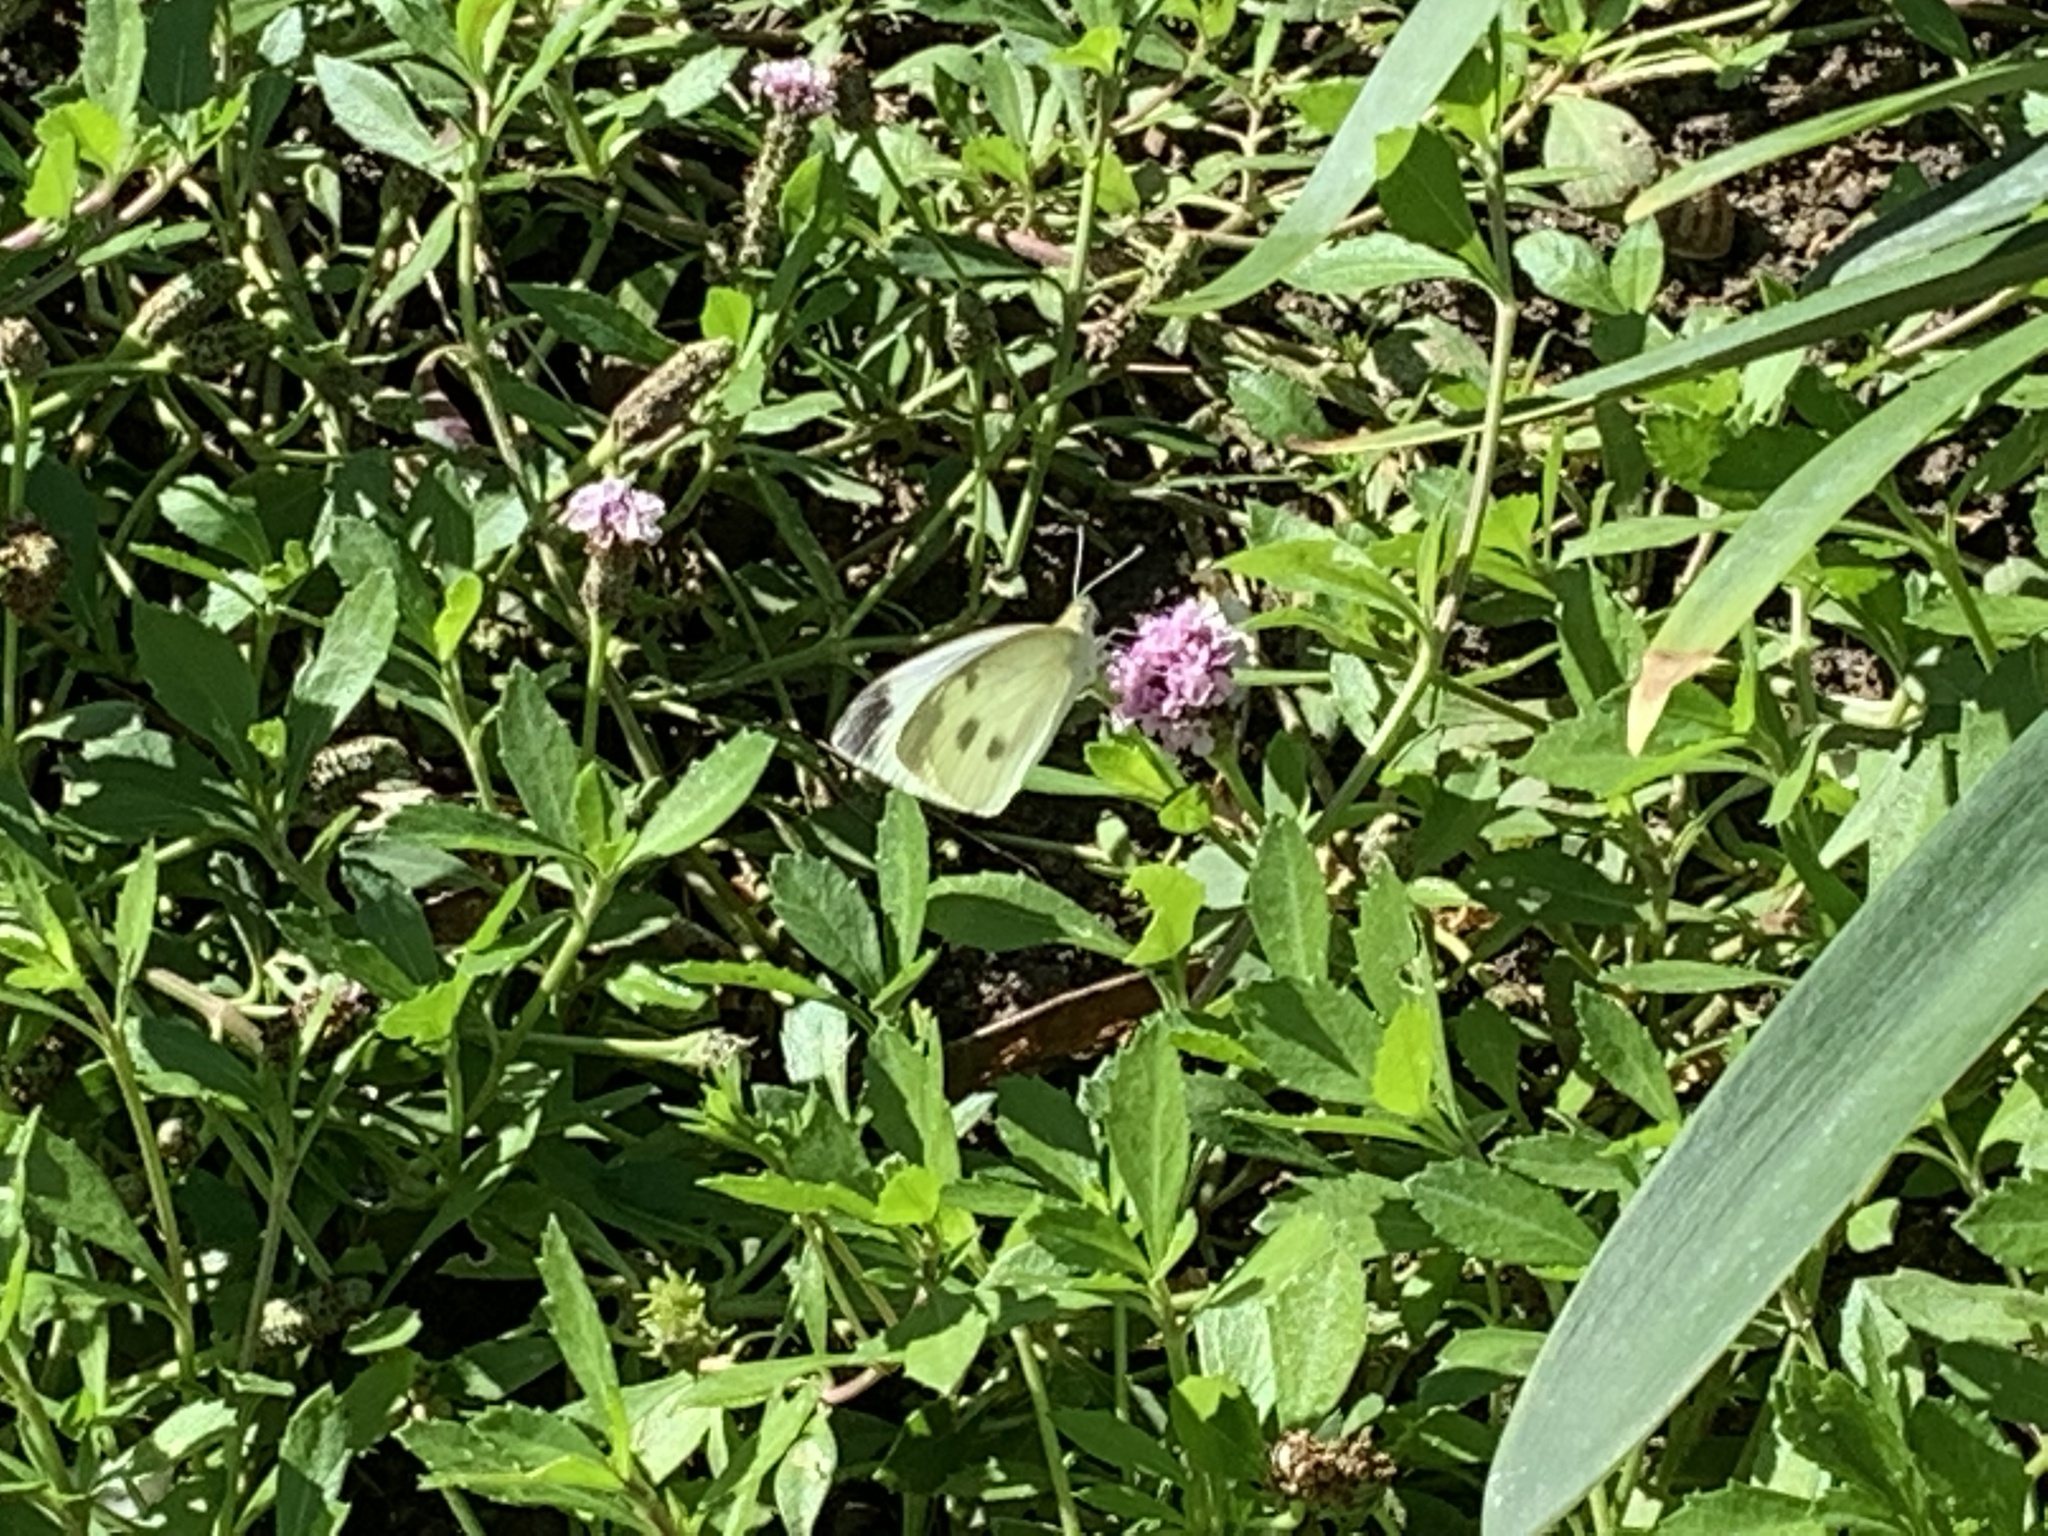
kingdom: Animalia
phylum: Arthropoda
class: Insecta
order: Lepidoptera
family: Pieridae
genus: Pieris
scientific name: Pieris rapae
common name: Small white
